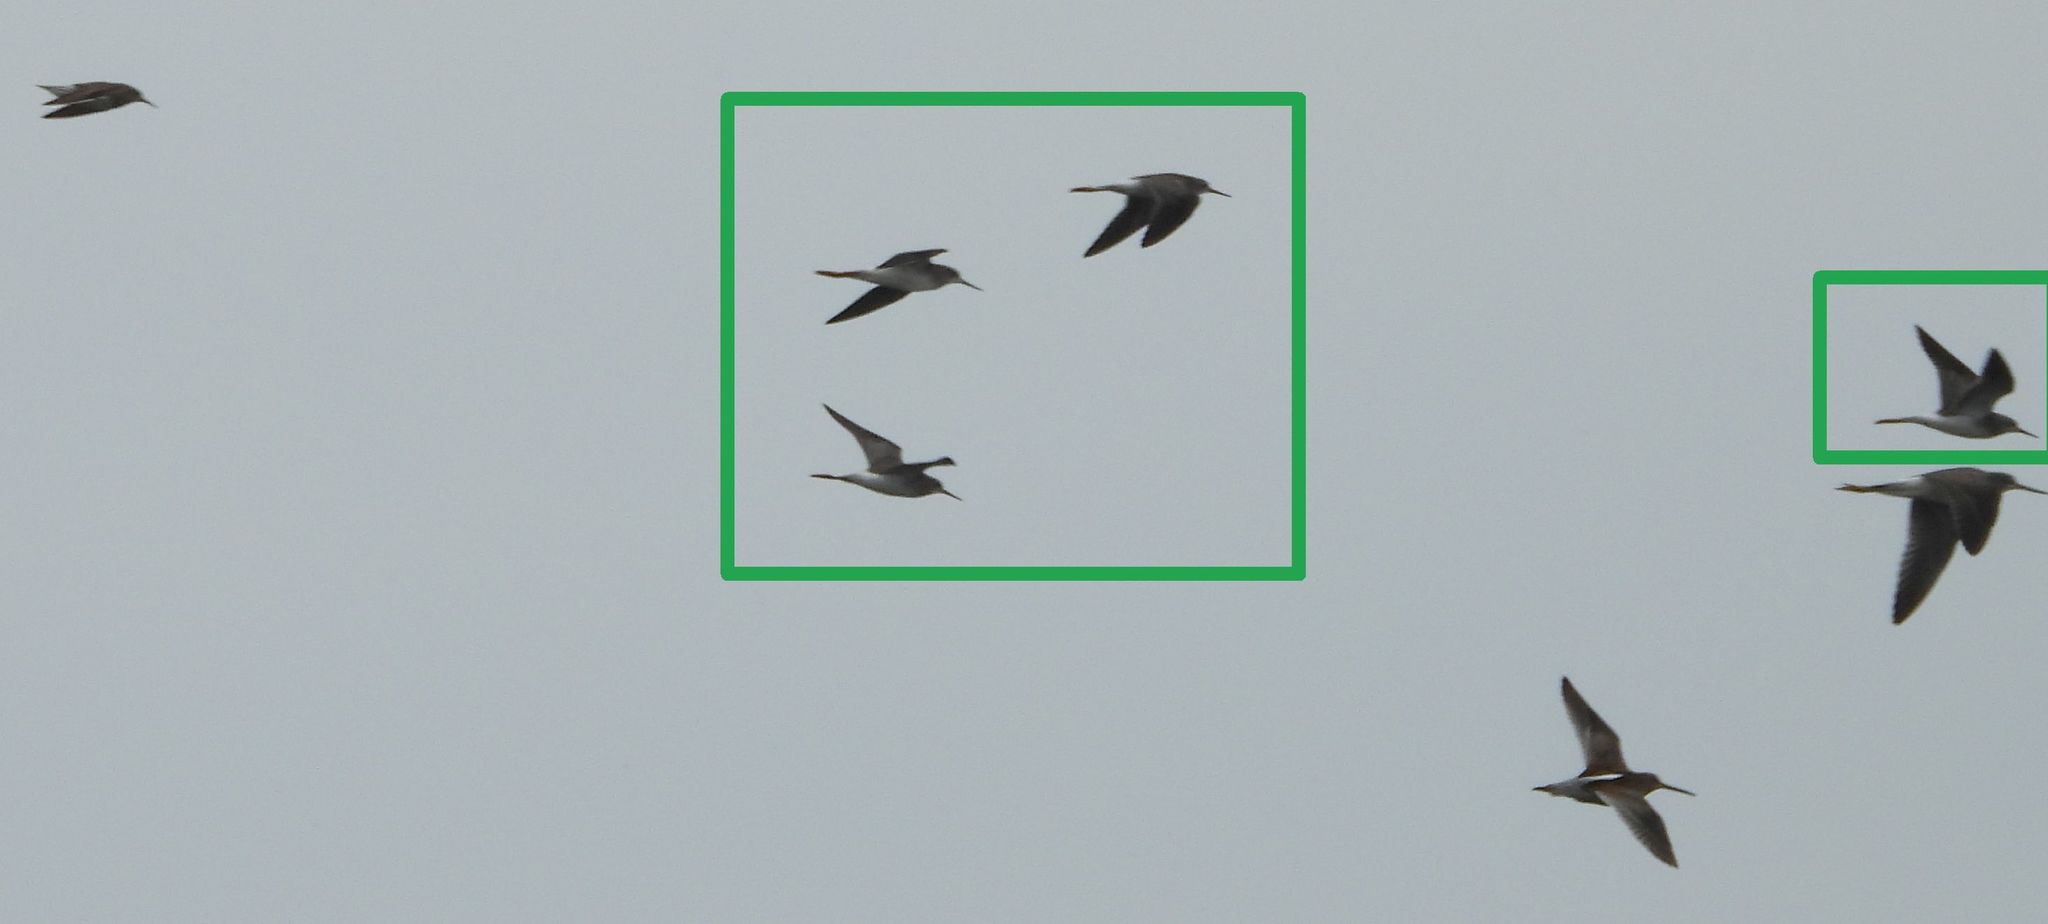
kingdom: Animalia
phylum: Chordata
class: Aves
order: Charadriiformes
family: Scolopacidae
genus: Tringa
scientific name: Tringa flavipes
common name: Lesser yellowlegs
